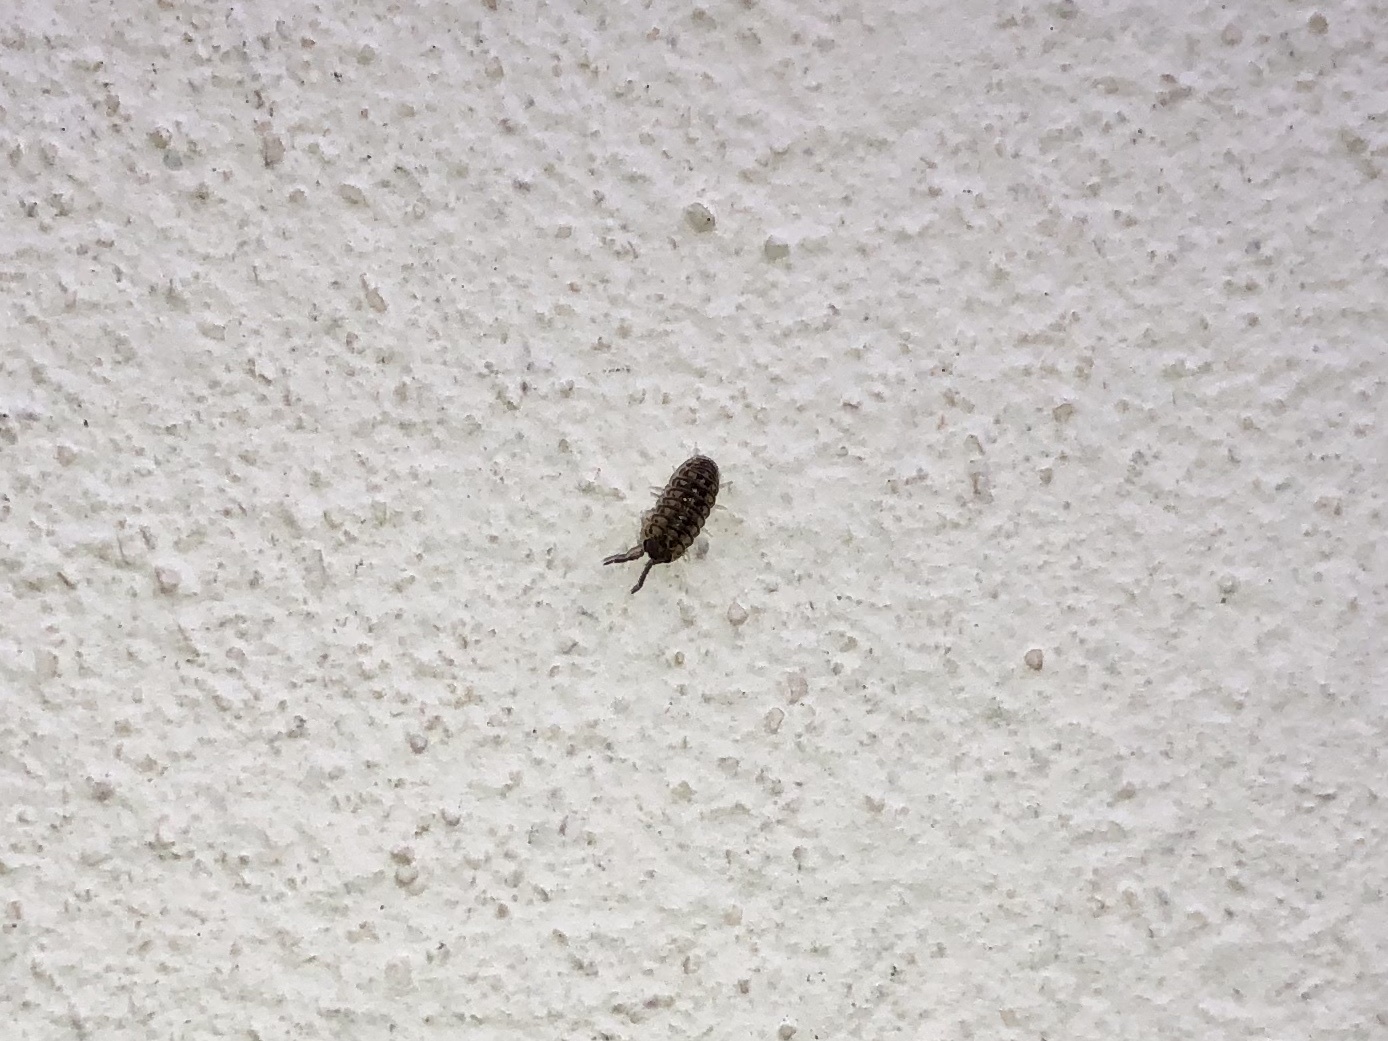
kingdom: Animalia
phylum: Arthropoda
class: Malacostraca
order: Isopoda
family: Armadillidiidae
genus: Armadillidium
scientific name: Armadillidium nasatum
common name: Isopod
